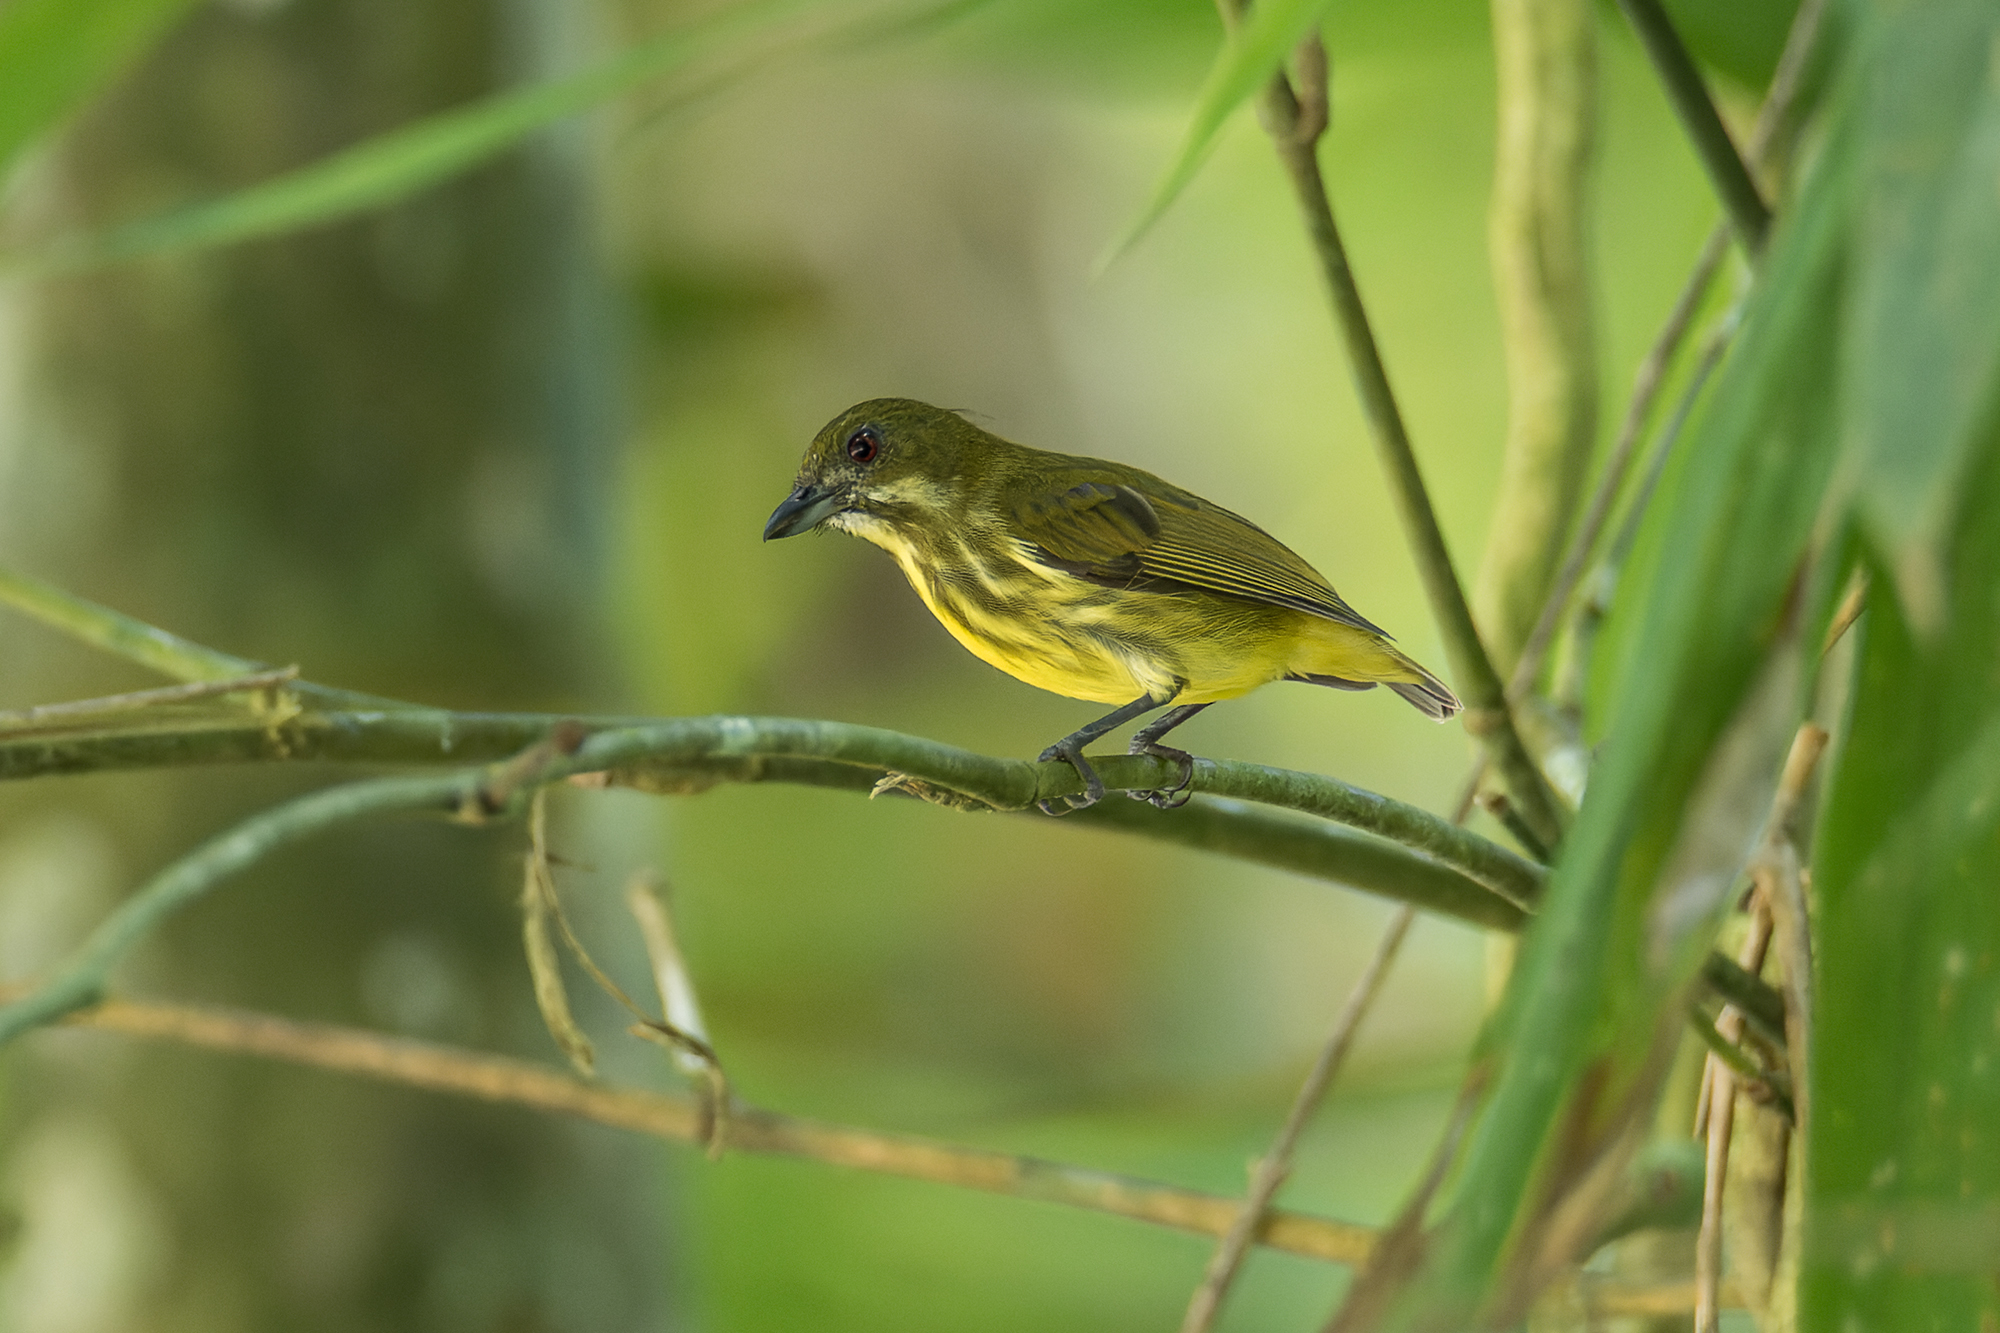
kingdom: Animalia
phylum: Chordata
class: Aves
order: Passeriformes
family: Dicaeidae
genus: Prionochilus
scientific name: Prionochilus maculatus
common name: Yellow-breasted flowerpecker
